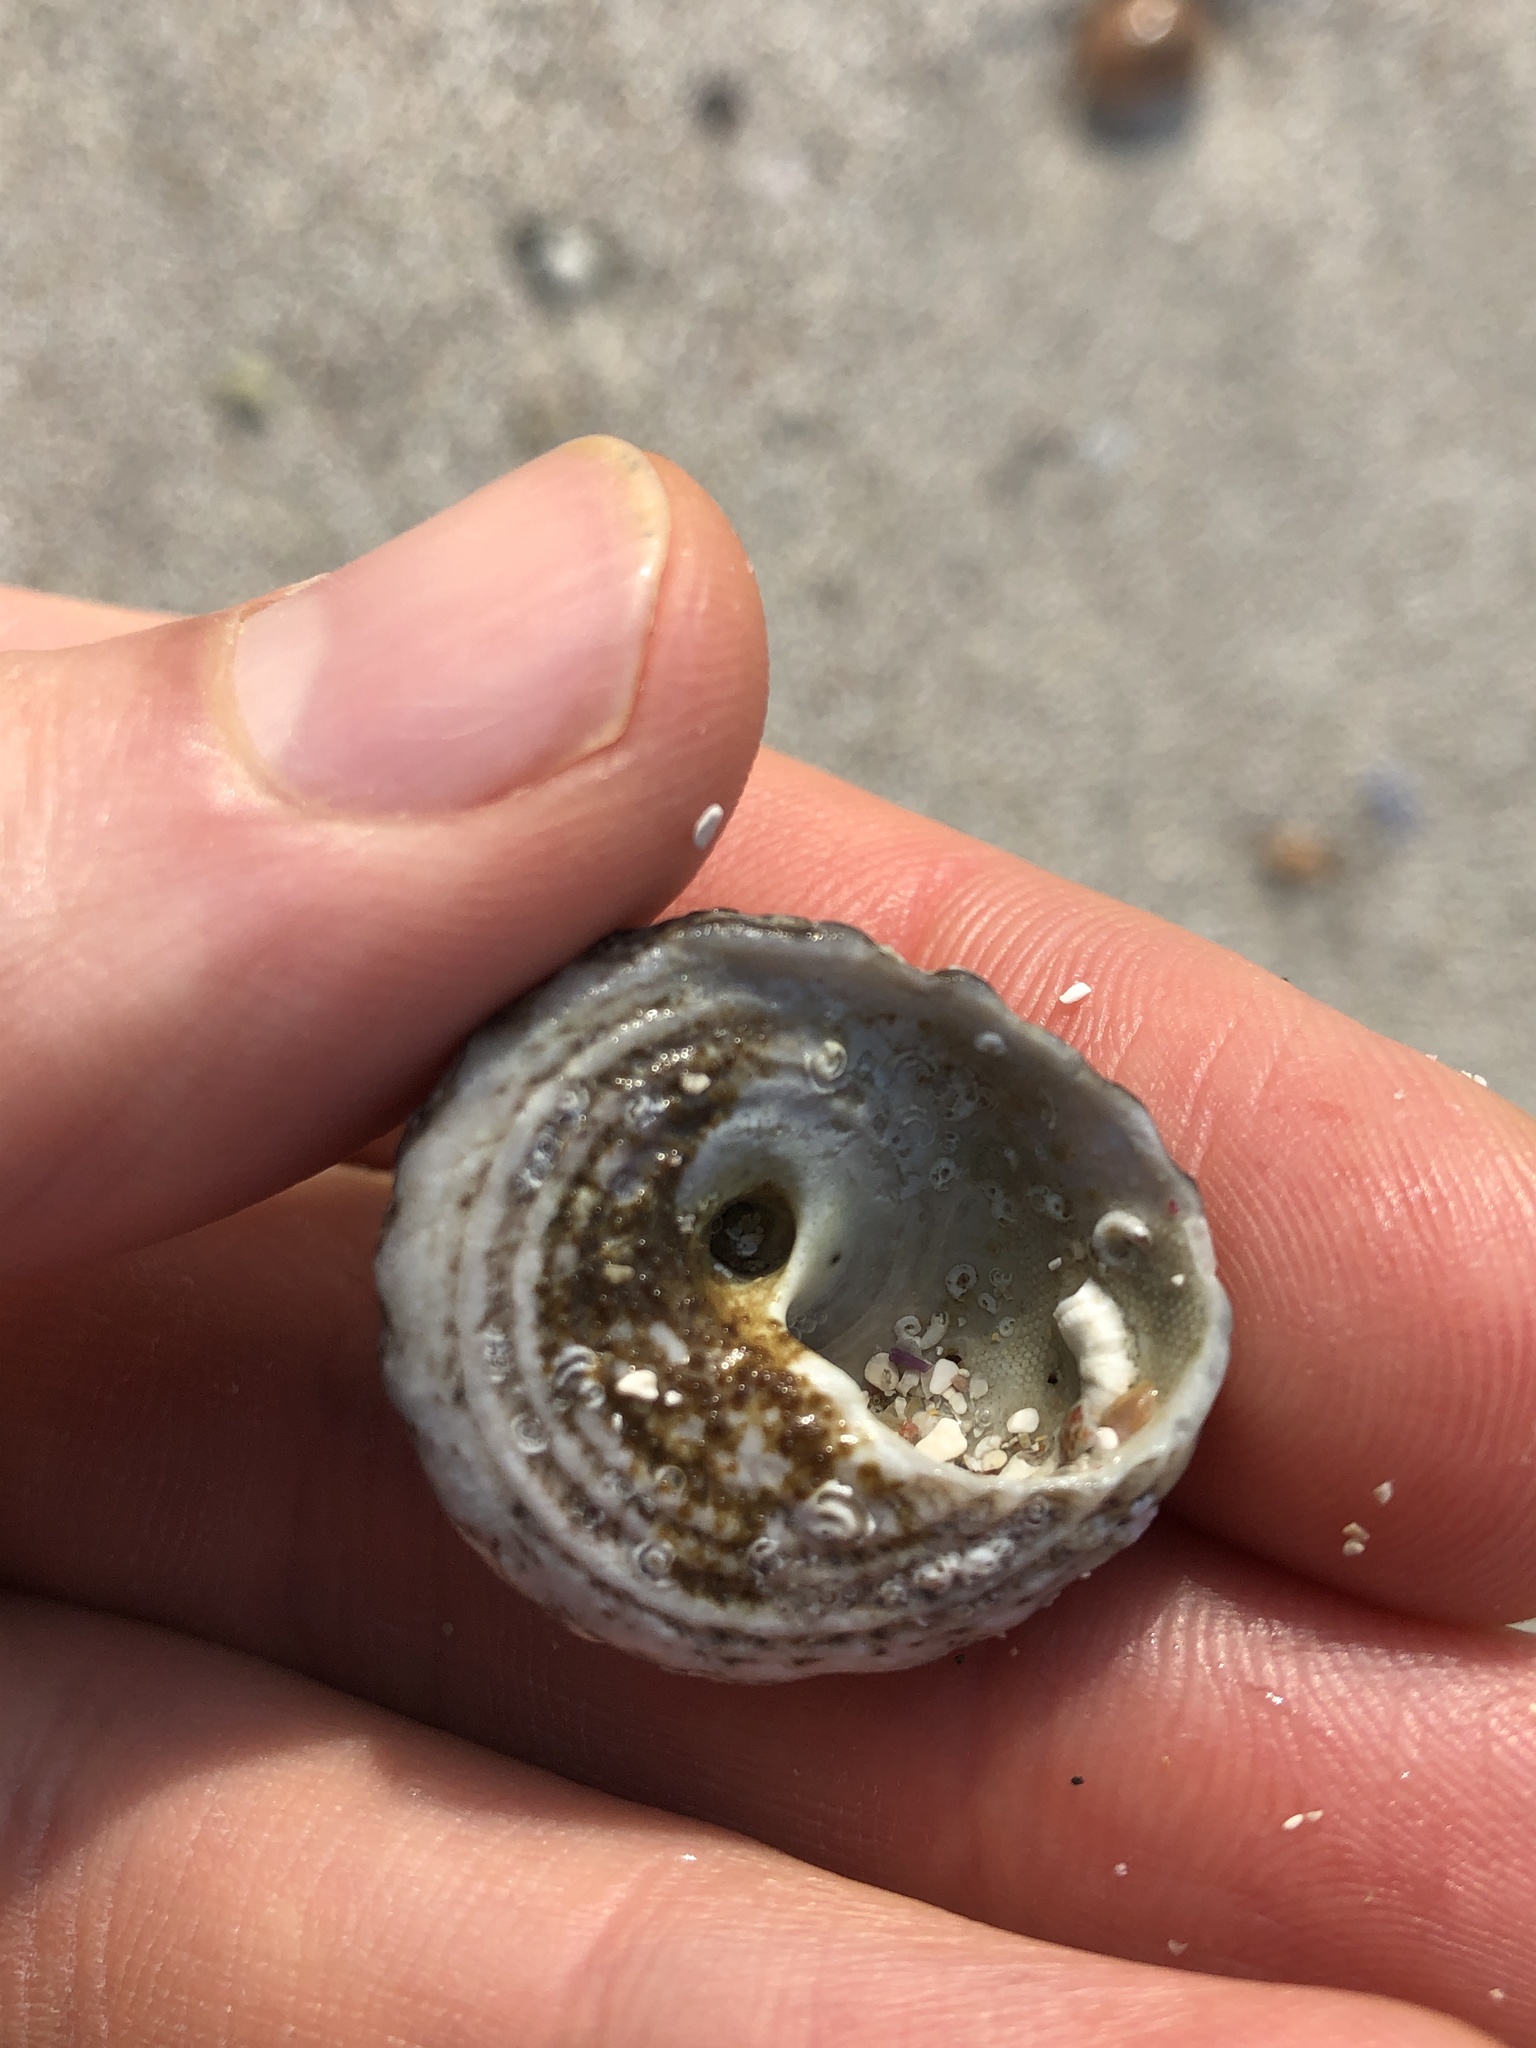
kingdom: Animalia
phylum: Mollusca
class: Gastropoda
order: Trochida
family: Tegulidae
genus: Tegula
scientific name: Tegula pfeifferi
